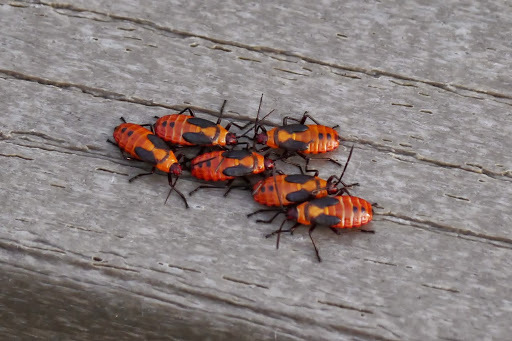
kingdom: Animalia
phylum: Arthropoda
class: Insecta
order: Hemiptera
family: Lygaeidae
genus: Oncopeltus
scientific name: Oncopeltus fasciatus
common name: Large milkweed bug
